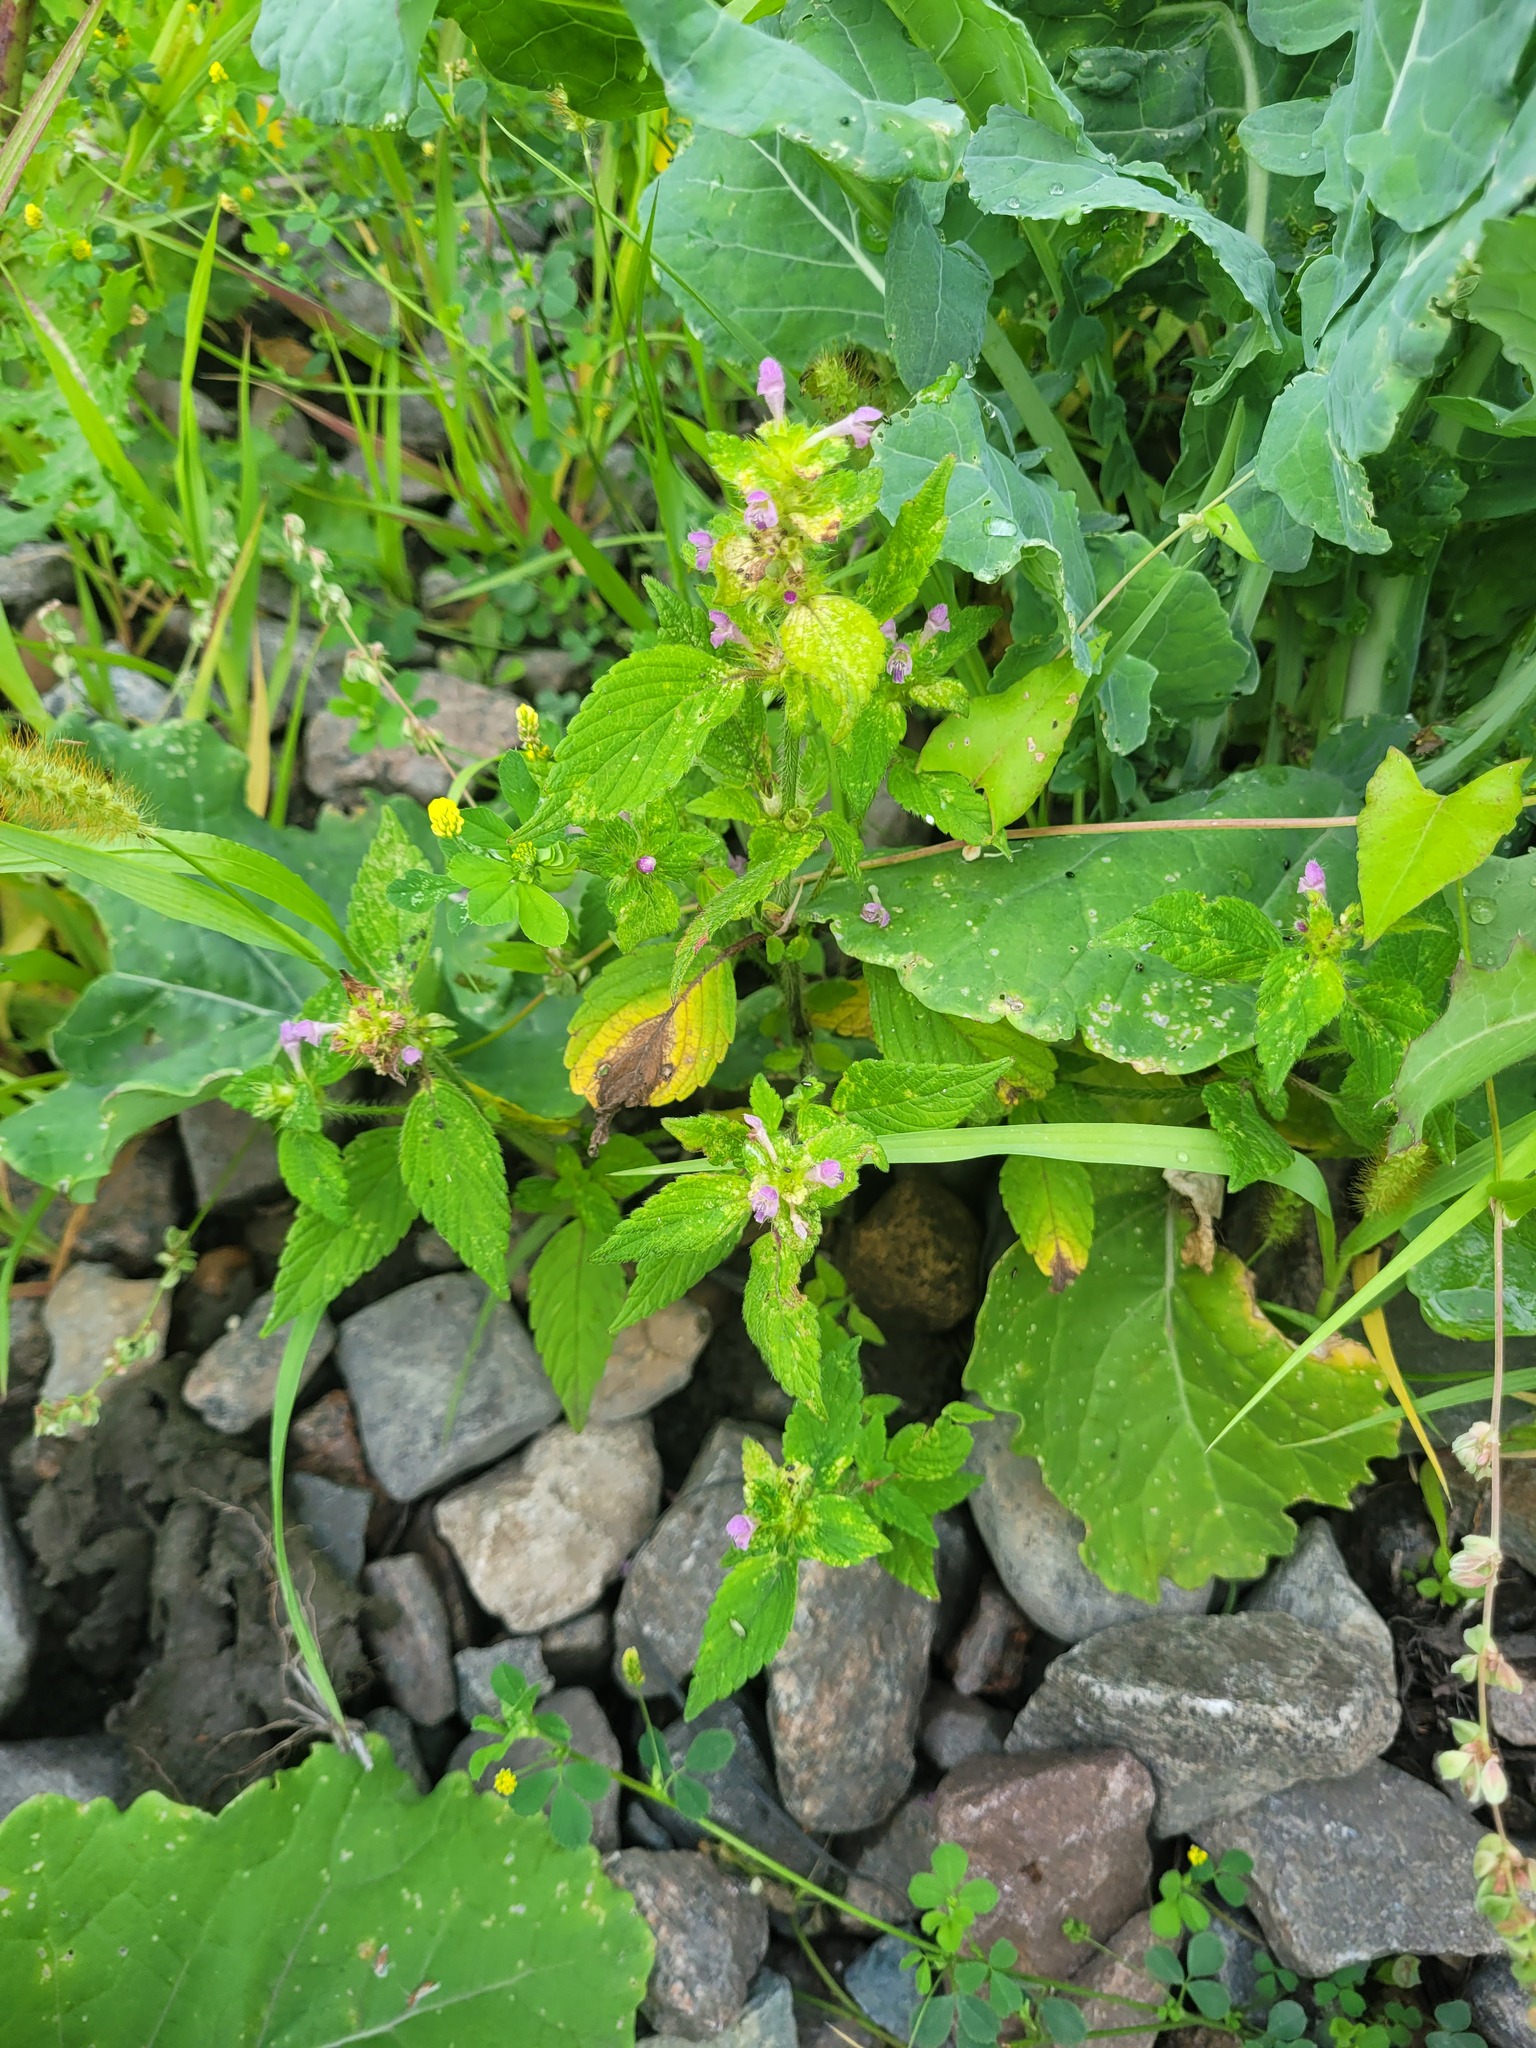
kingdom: Plantae
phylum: Tracheophyta
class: Magnoliopsida
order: Lamiales
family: Lamiaceae
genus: Galeopsis
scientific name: Galeopsis bifida
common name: Bifid hemp-nettle
